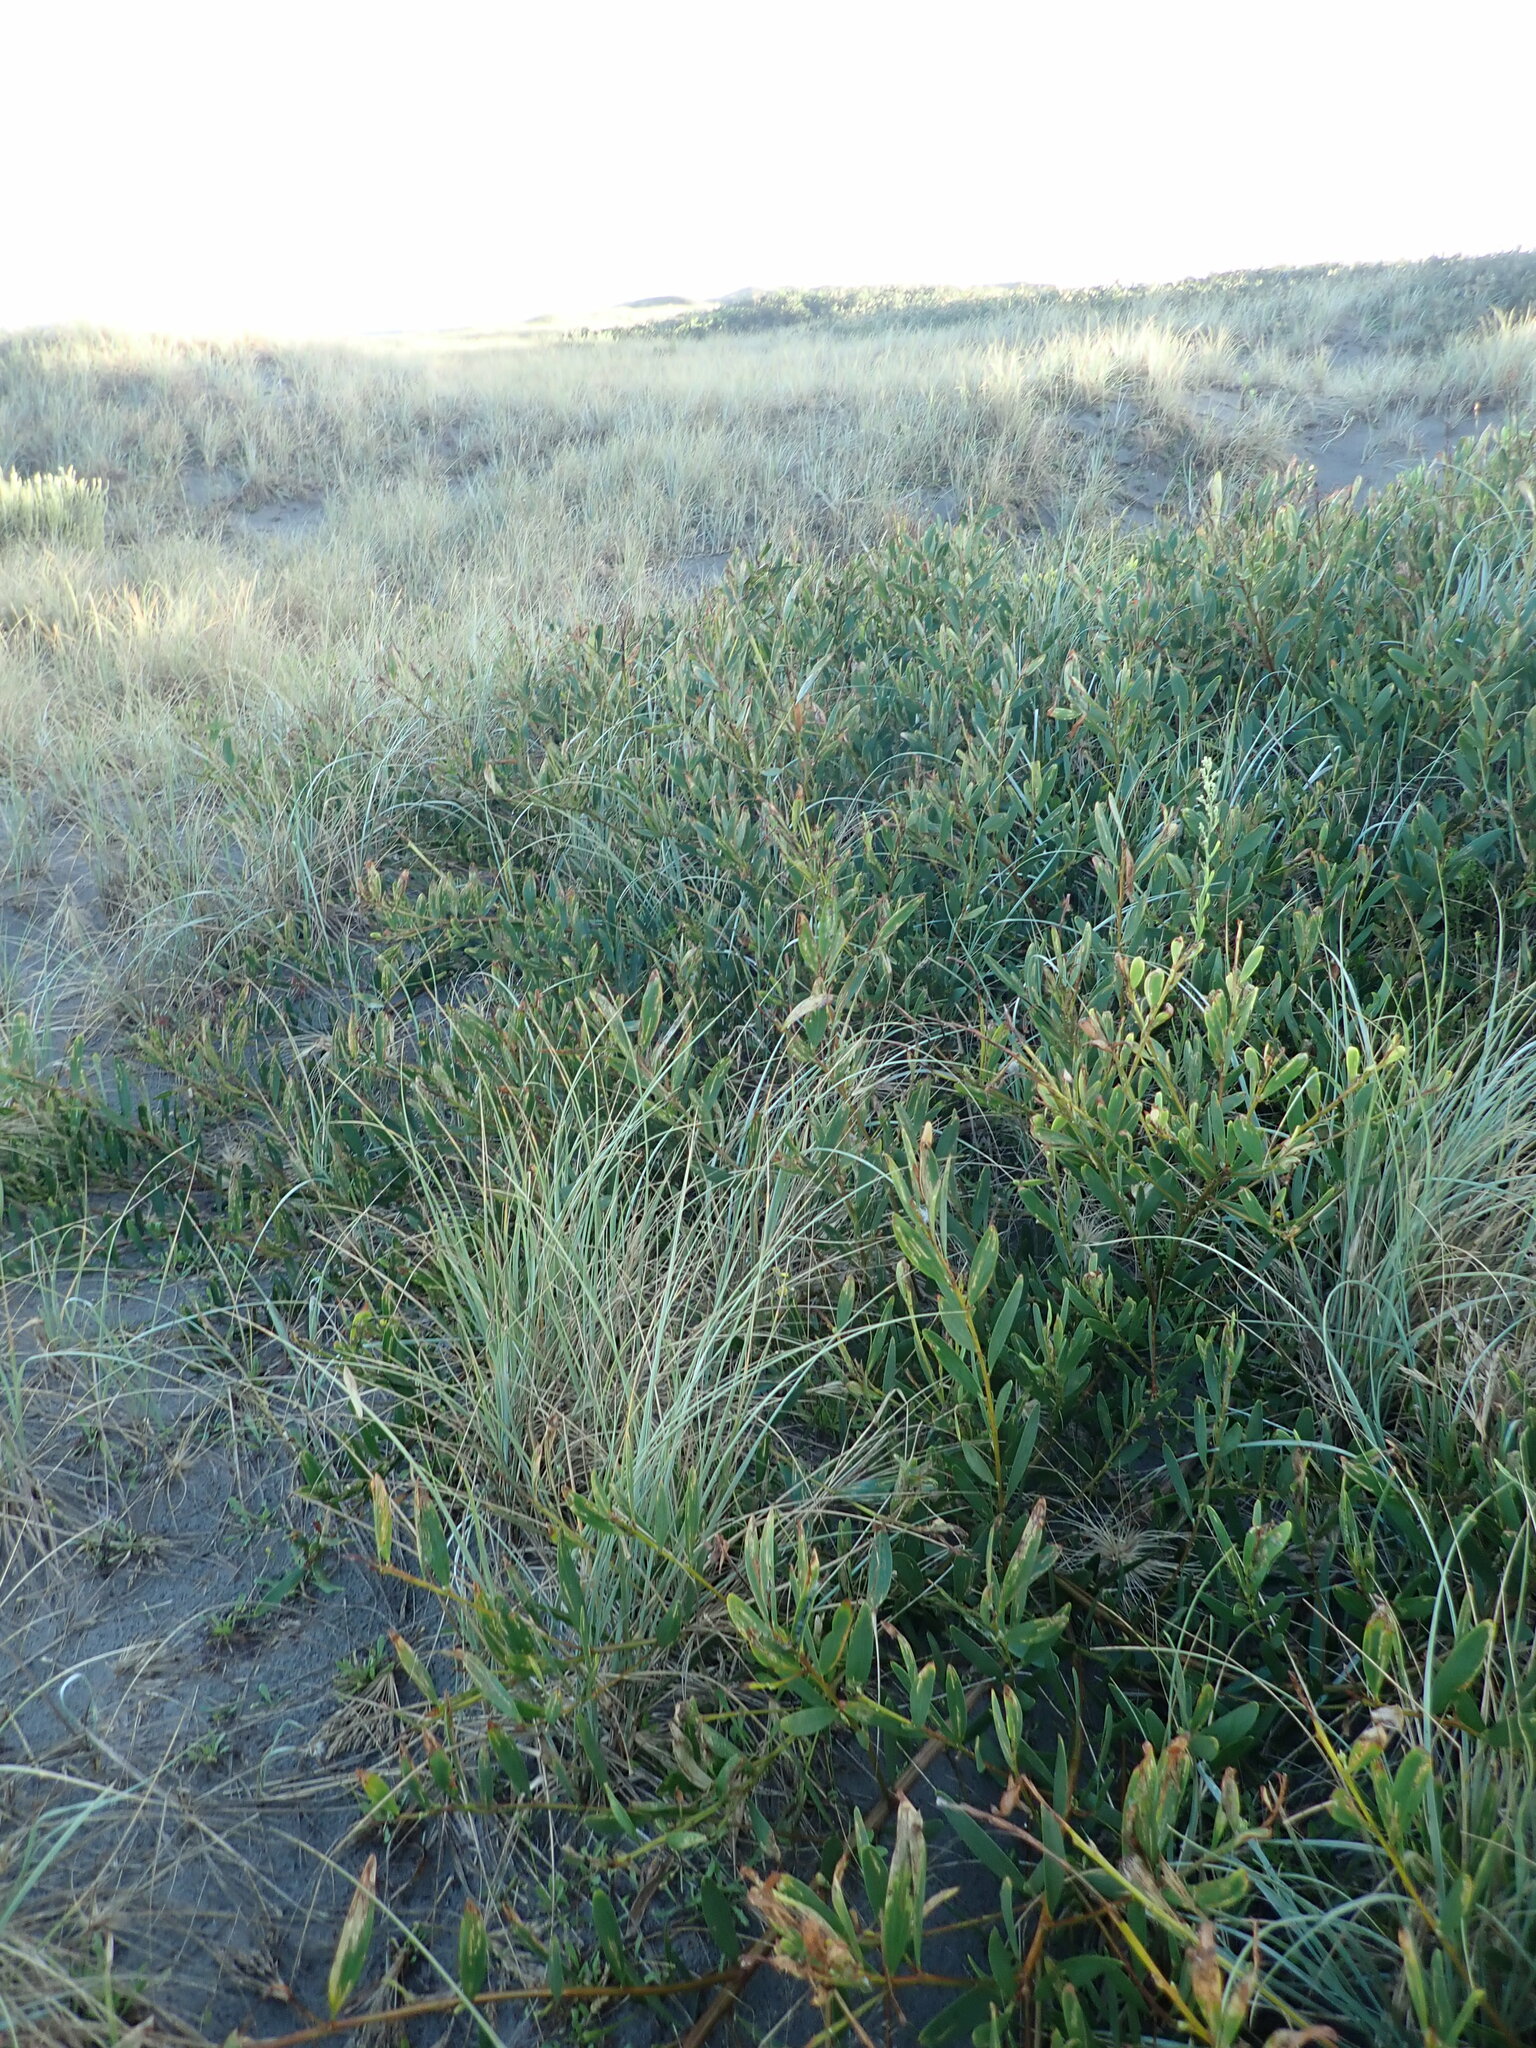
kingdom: Plantae
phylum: Tracheophyta
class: Magnoliopsida
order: Fabales
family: Fabaceae
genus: Acacia
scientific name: Acacia longifolia
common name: Sydney golden wattle
